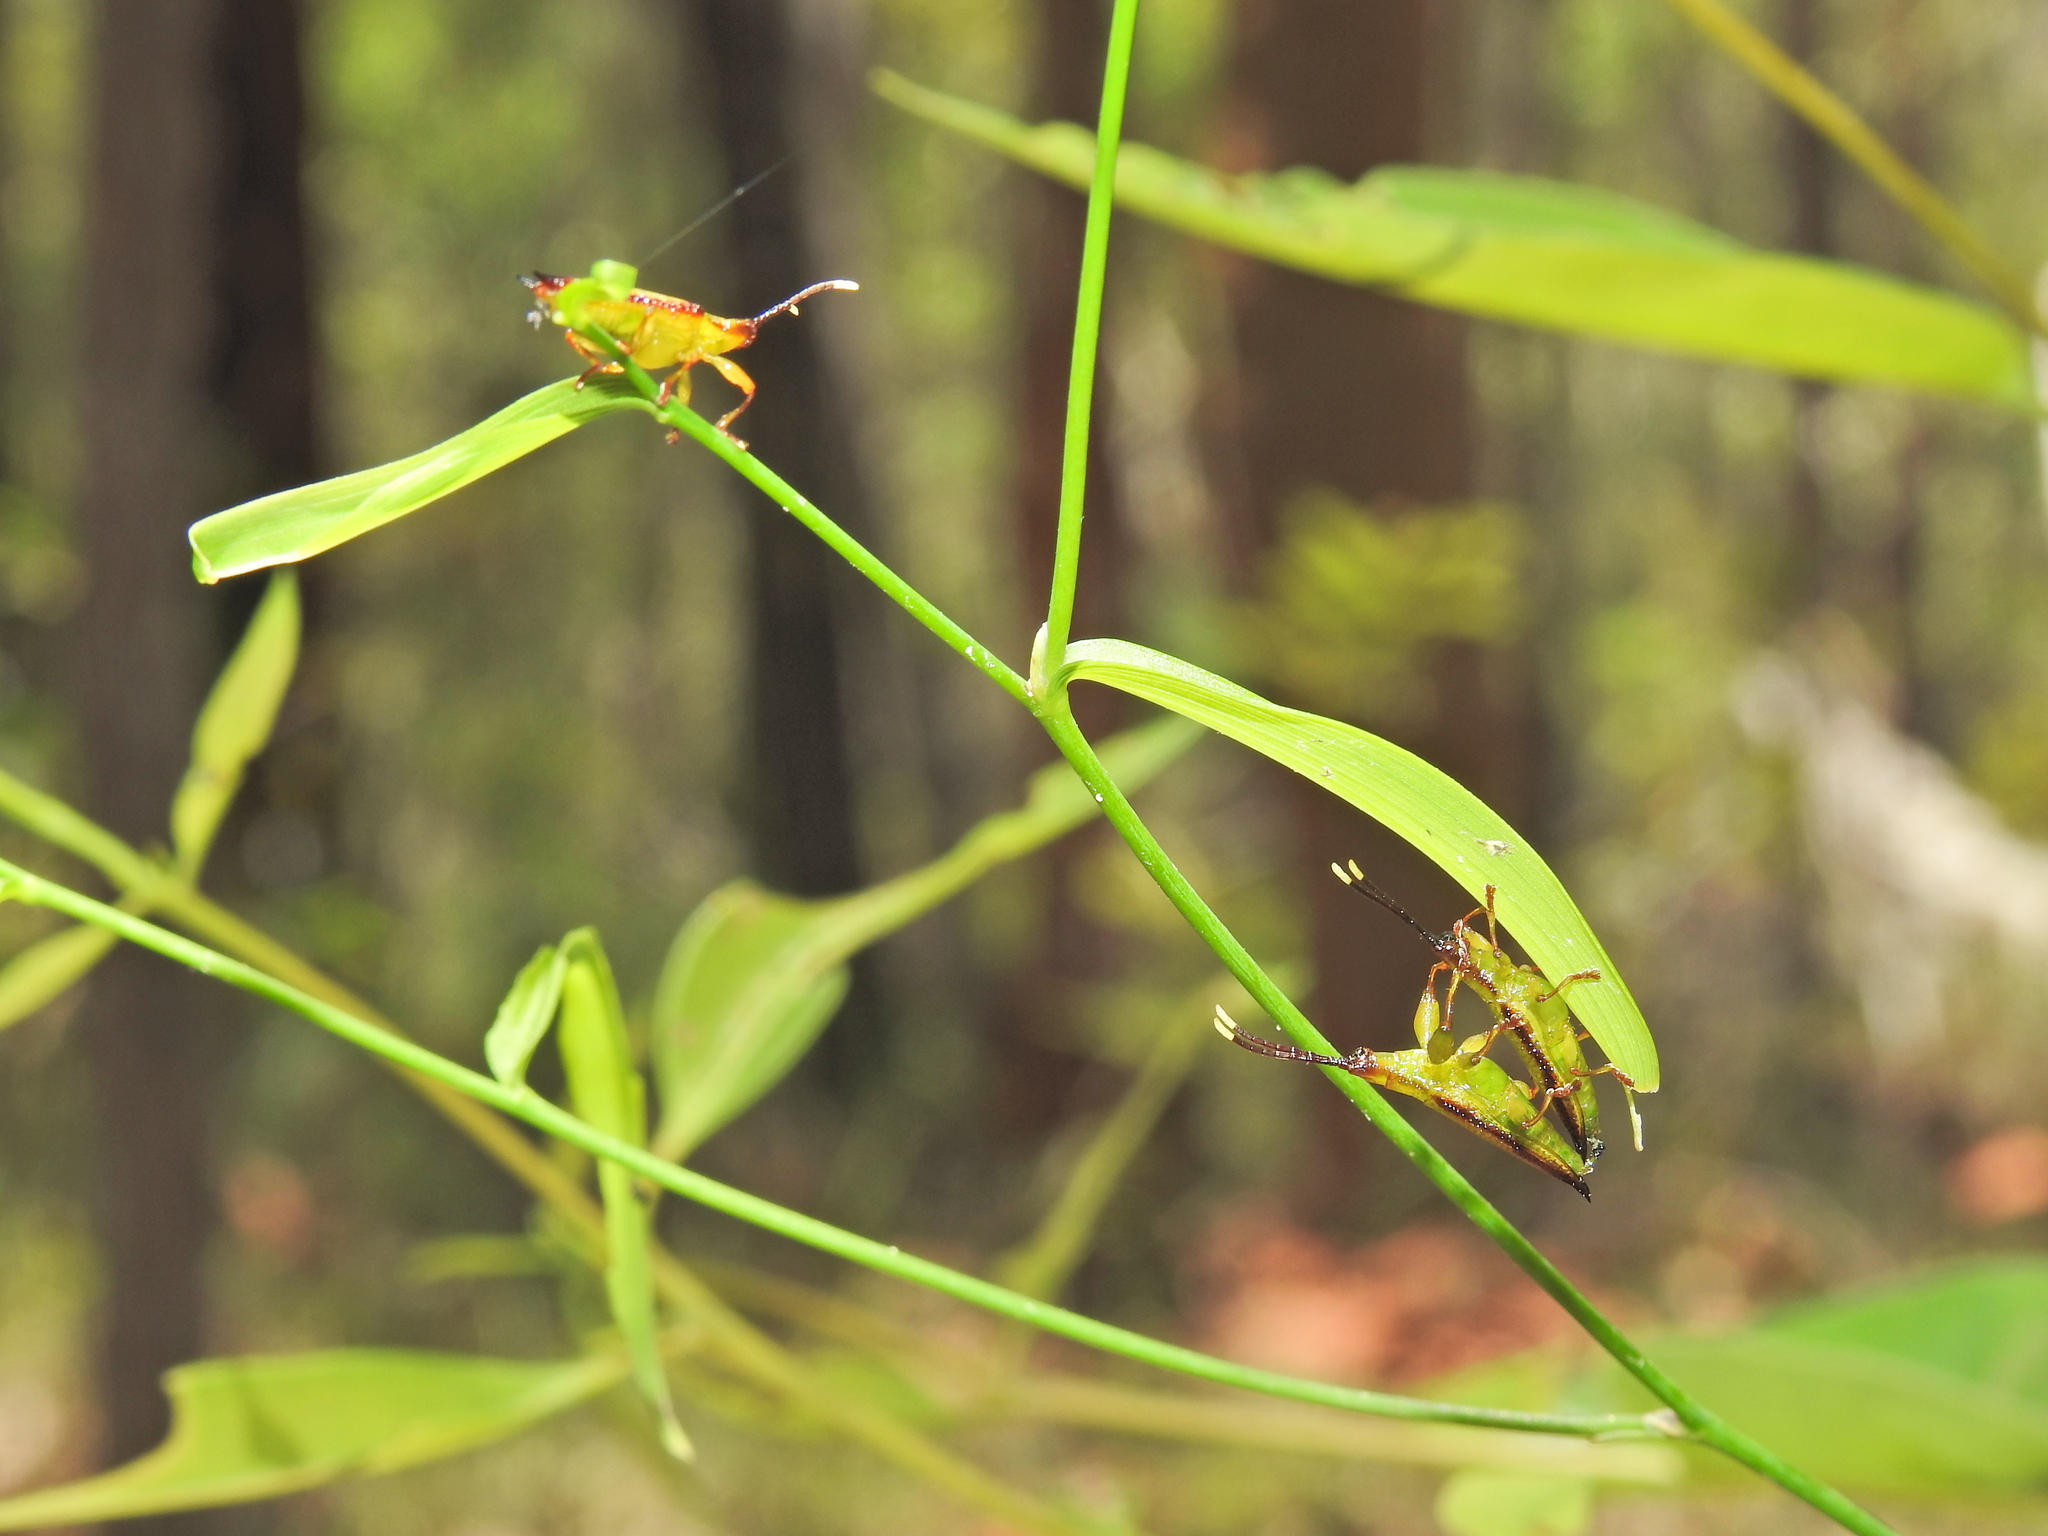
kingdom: Animalia
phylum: Arthropoda
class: Insecta
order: Coleoptera
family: Chrysomelidae
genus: Aproida
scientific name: Aproida balyi
